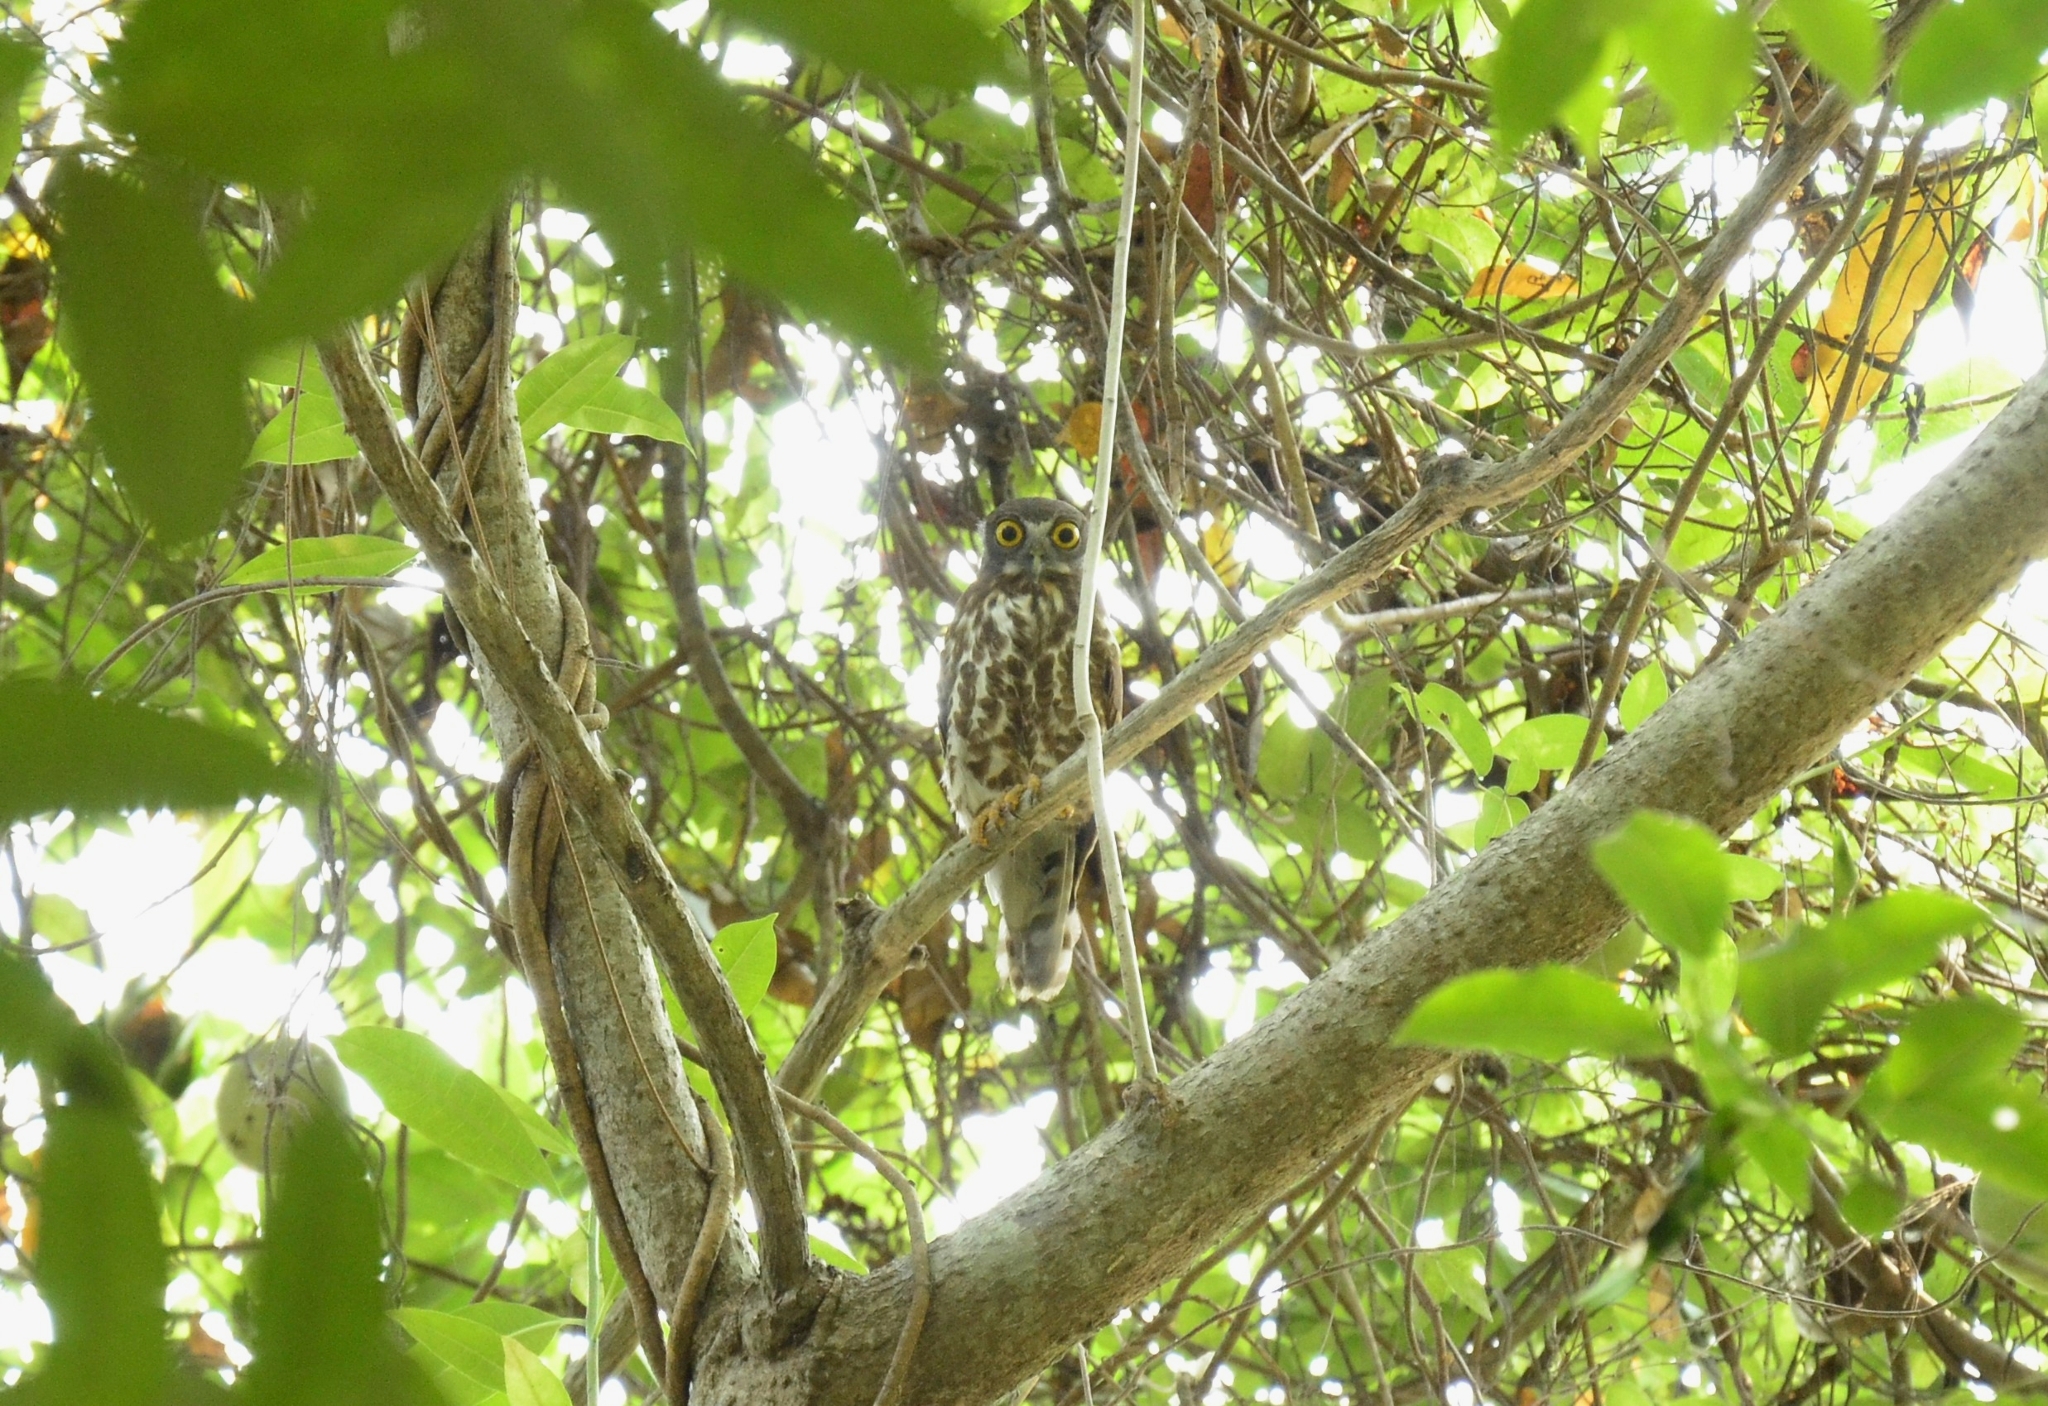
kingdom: Animalia
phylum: Chordata
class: Aves
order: Strigiformes
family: Strigidae
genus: Ninox
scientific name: Ninox scutulata
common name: Brown hawk-owl
